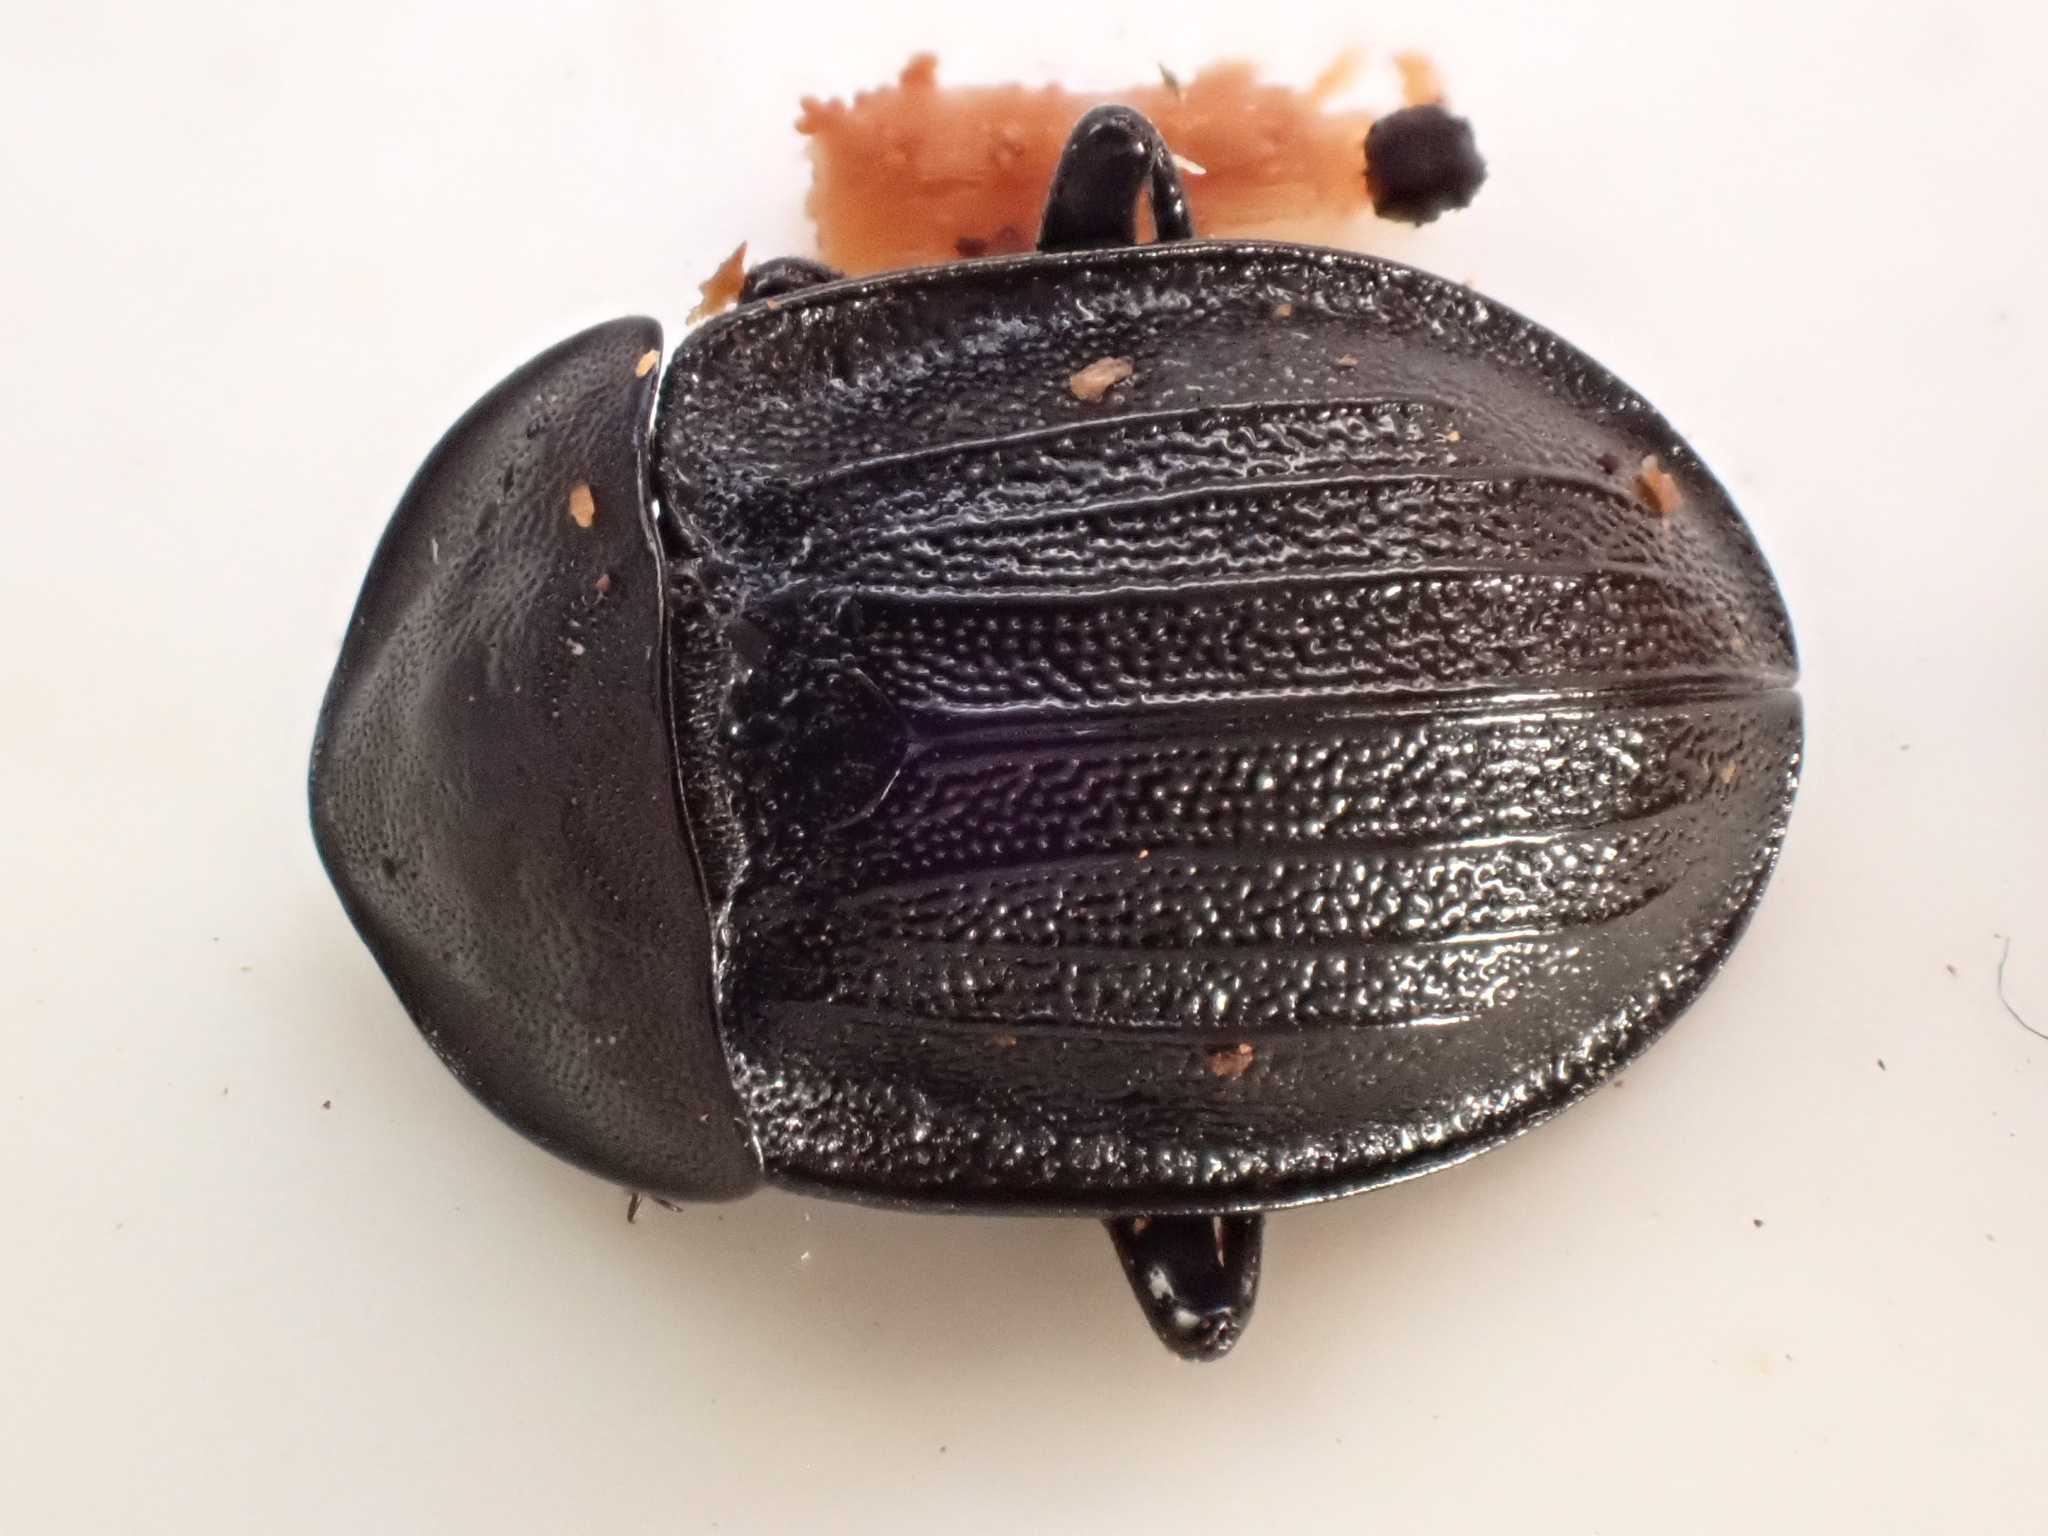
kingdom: Animalia
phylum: Arthropoda
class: Insecta
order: Coleoptera
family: Staphylinidae
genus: Silpha
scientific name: Silpha atrata
